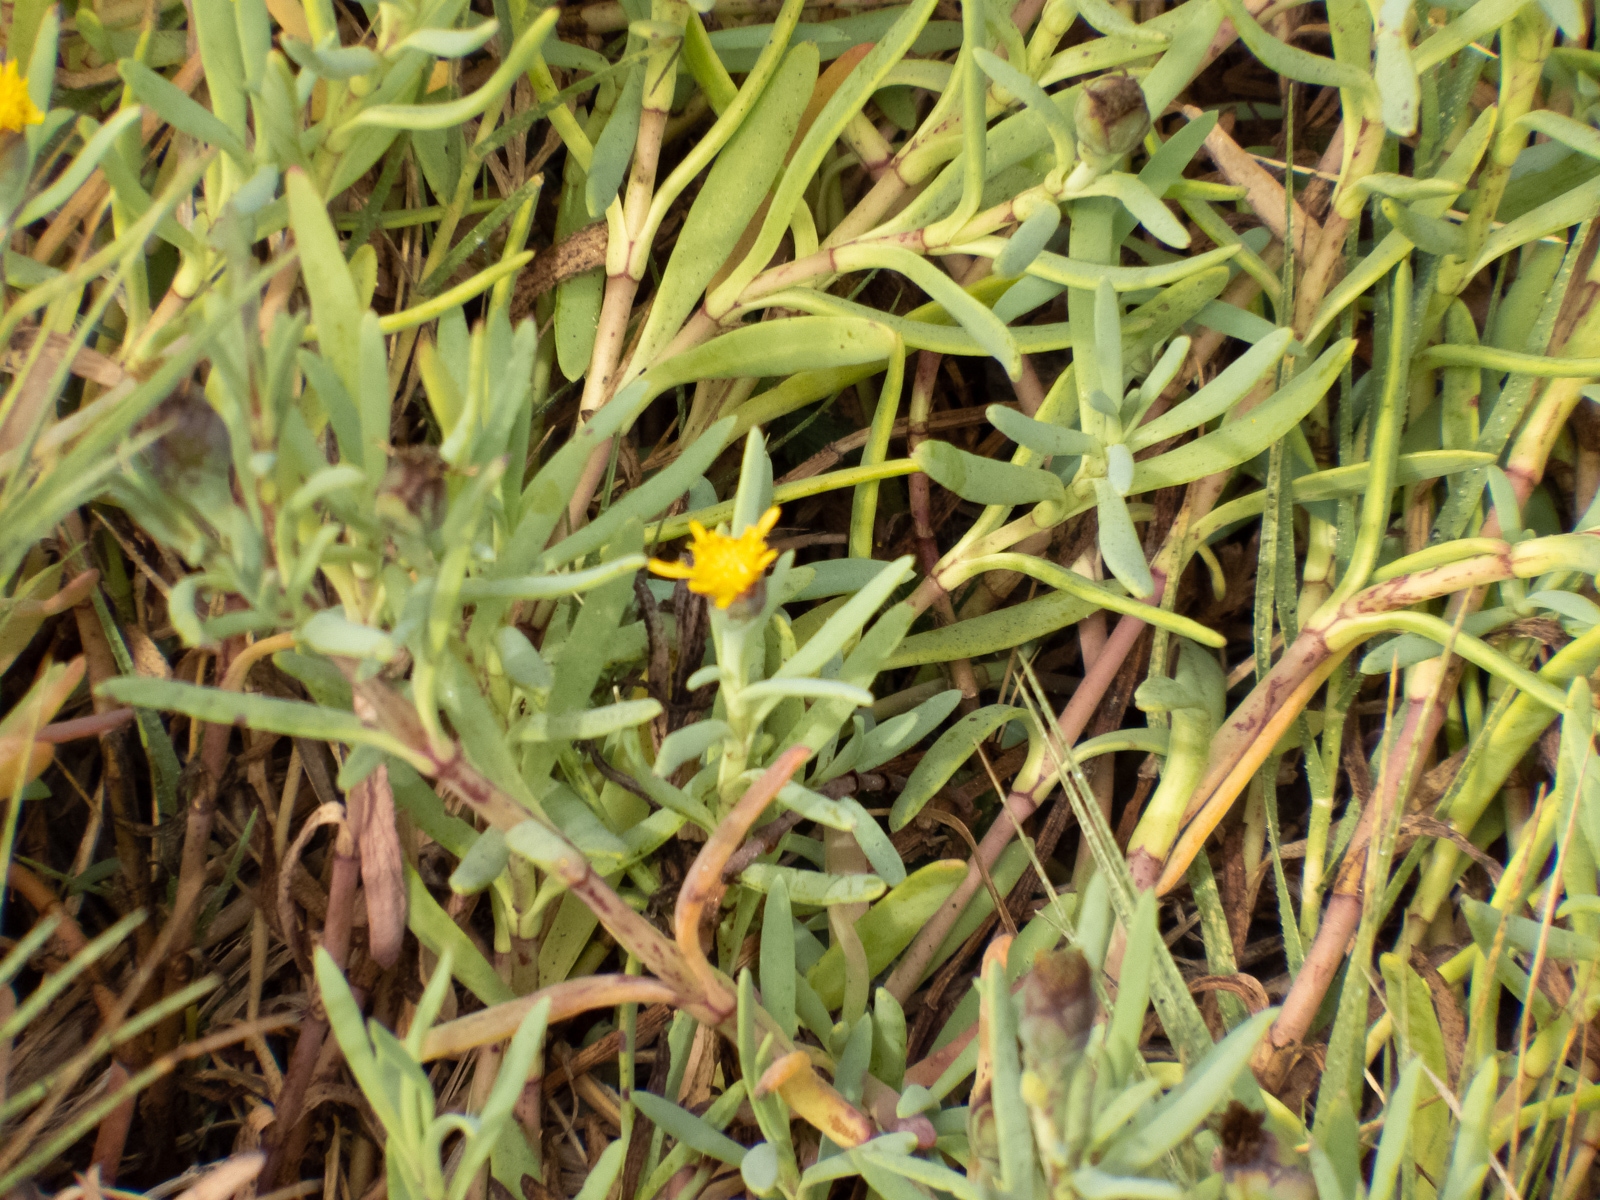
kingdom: Plantae
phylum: Tracheophyta
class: Magnoliopsida
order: Asterales
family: Asteraceae
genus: Jaumea
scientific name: Jaumea carnosa
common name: Fleshy jaumea
